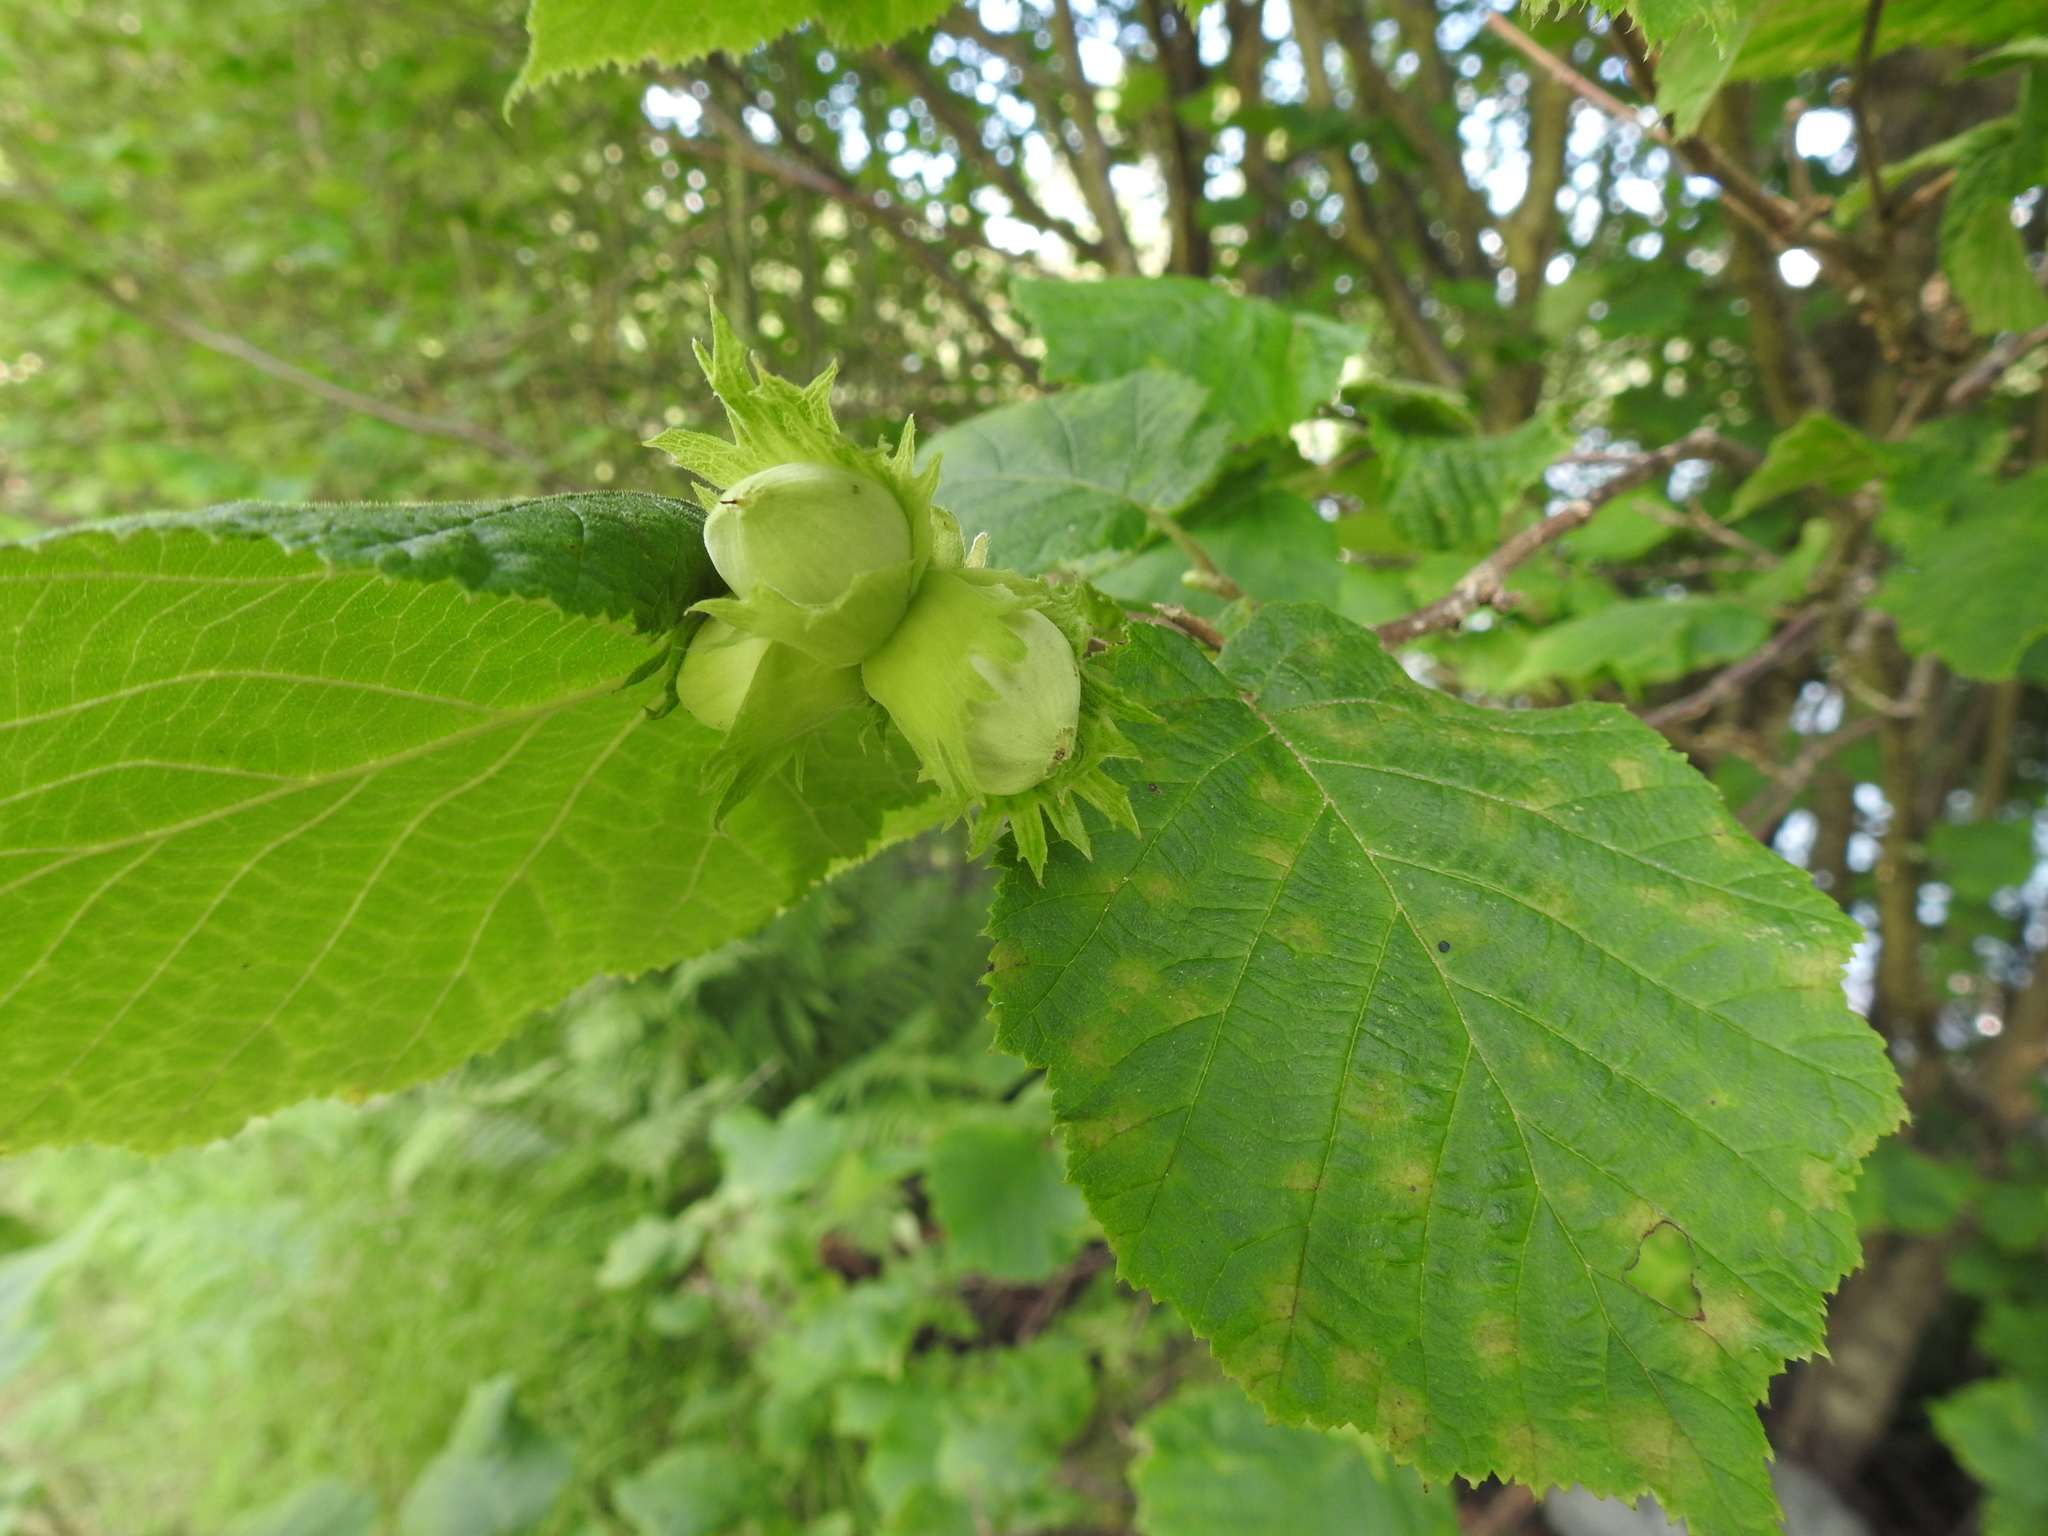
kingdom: Plantae
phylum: Tracheophyta
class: Magnoliopsida
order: Fagales
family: Betulaceae
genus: Corylus
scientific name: Corylus avellana
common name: European hazel
